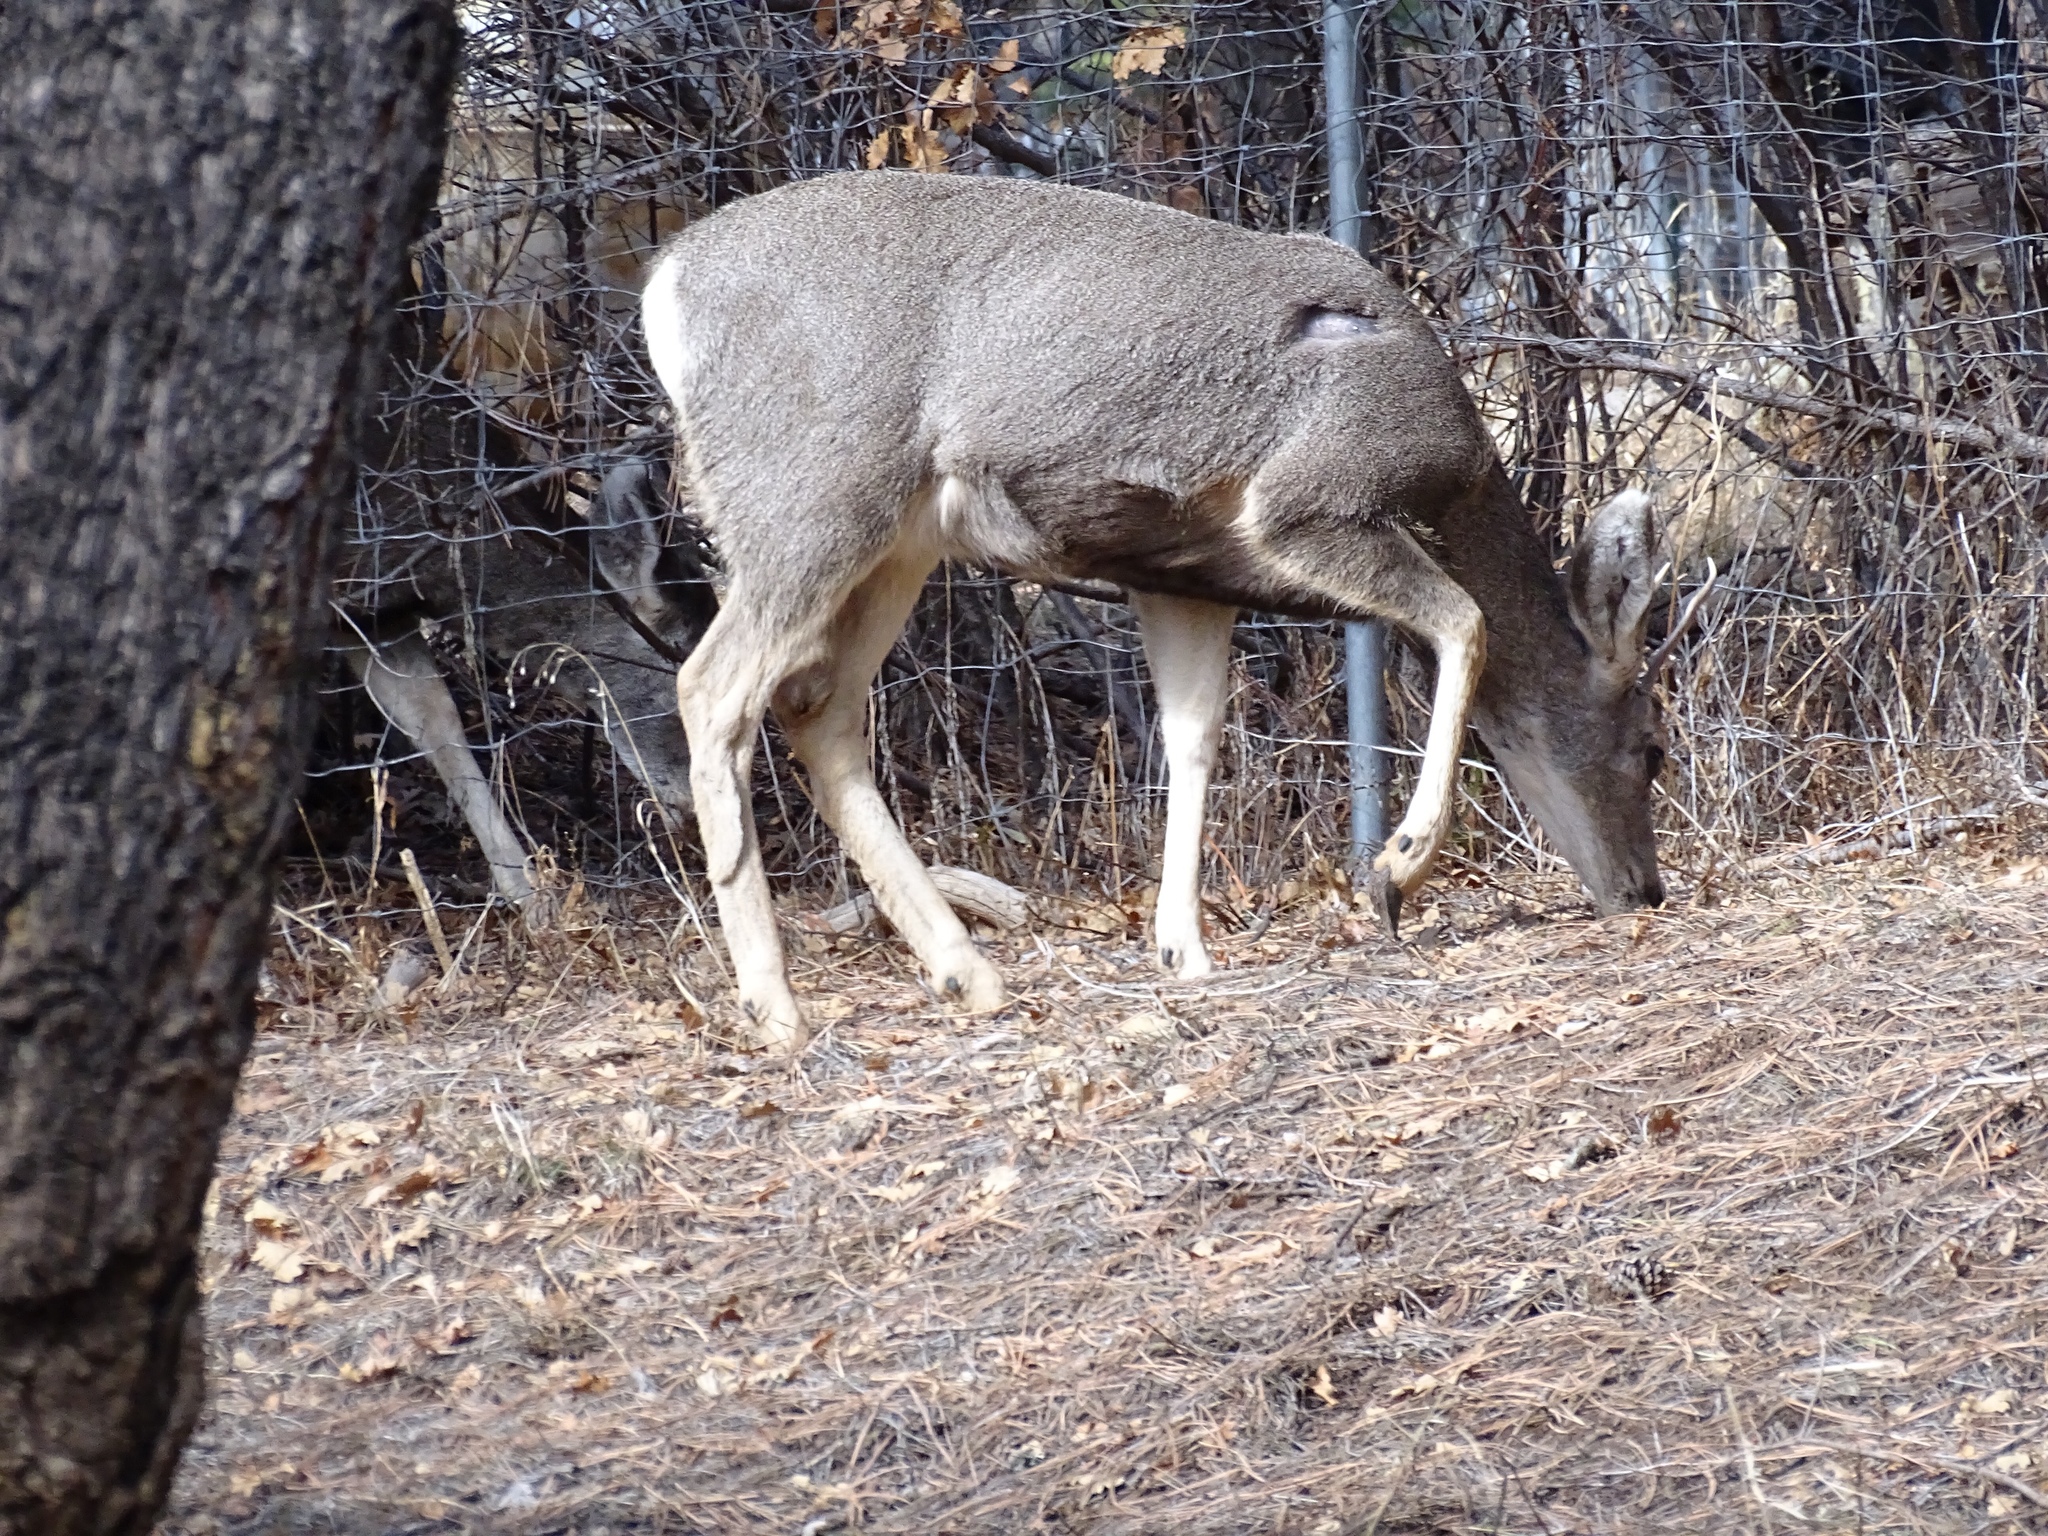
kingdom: Animalia
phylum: Chordata
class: Mammalia
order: Artiodactyla
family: Cervidae
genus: Odocoileus
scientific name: Odocoileus hemionus
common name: Mule deer
